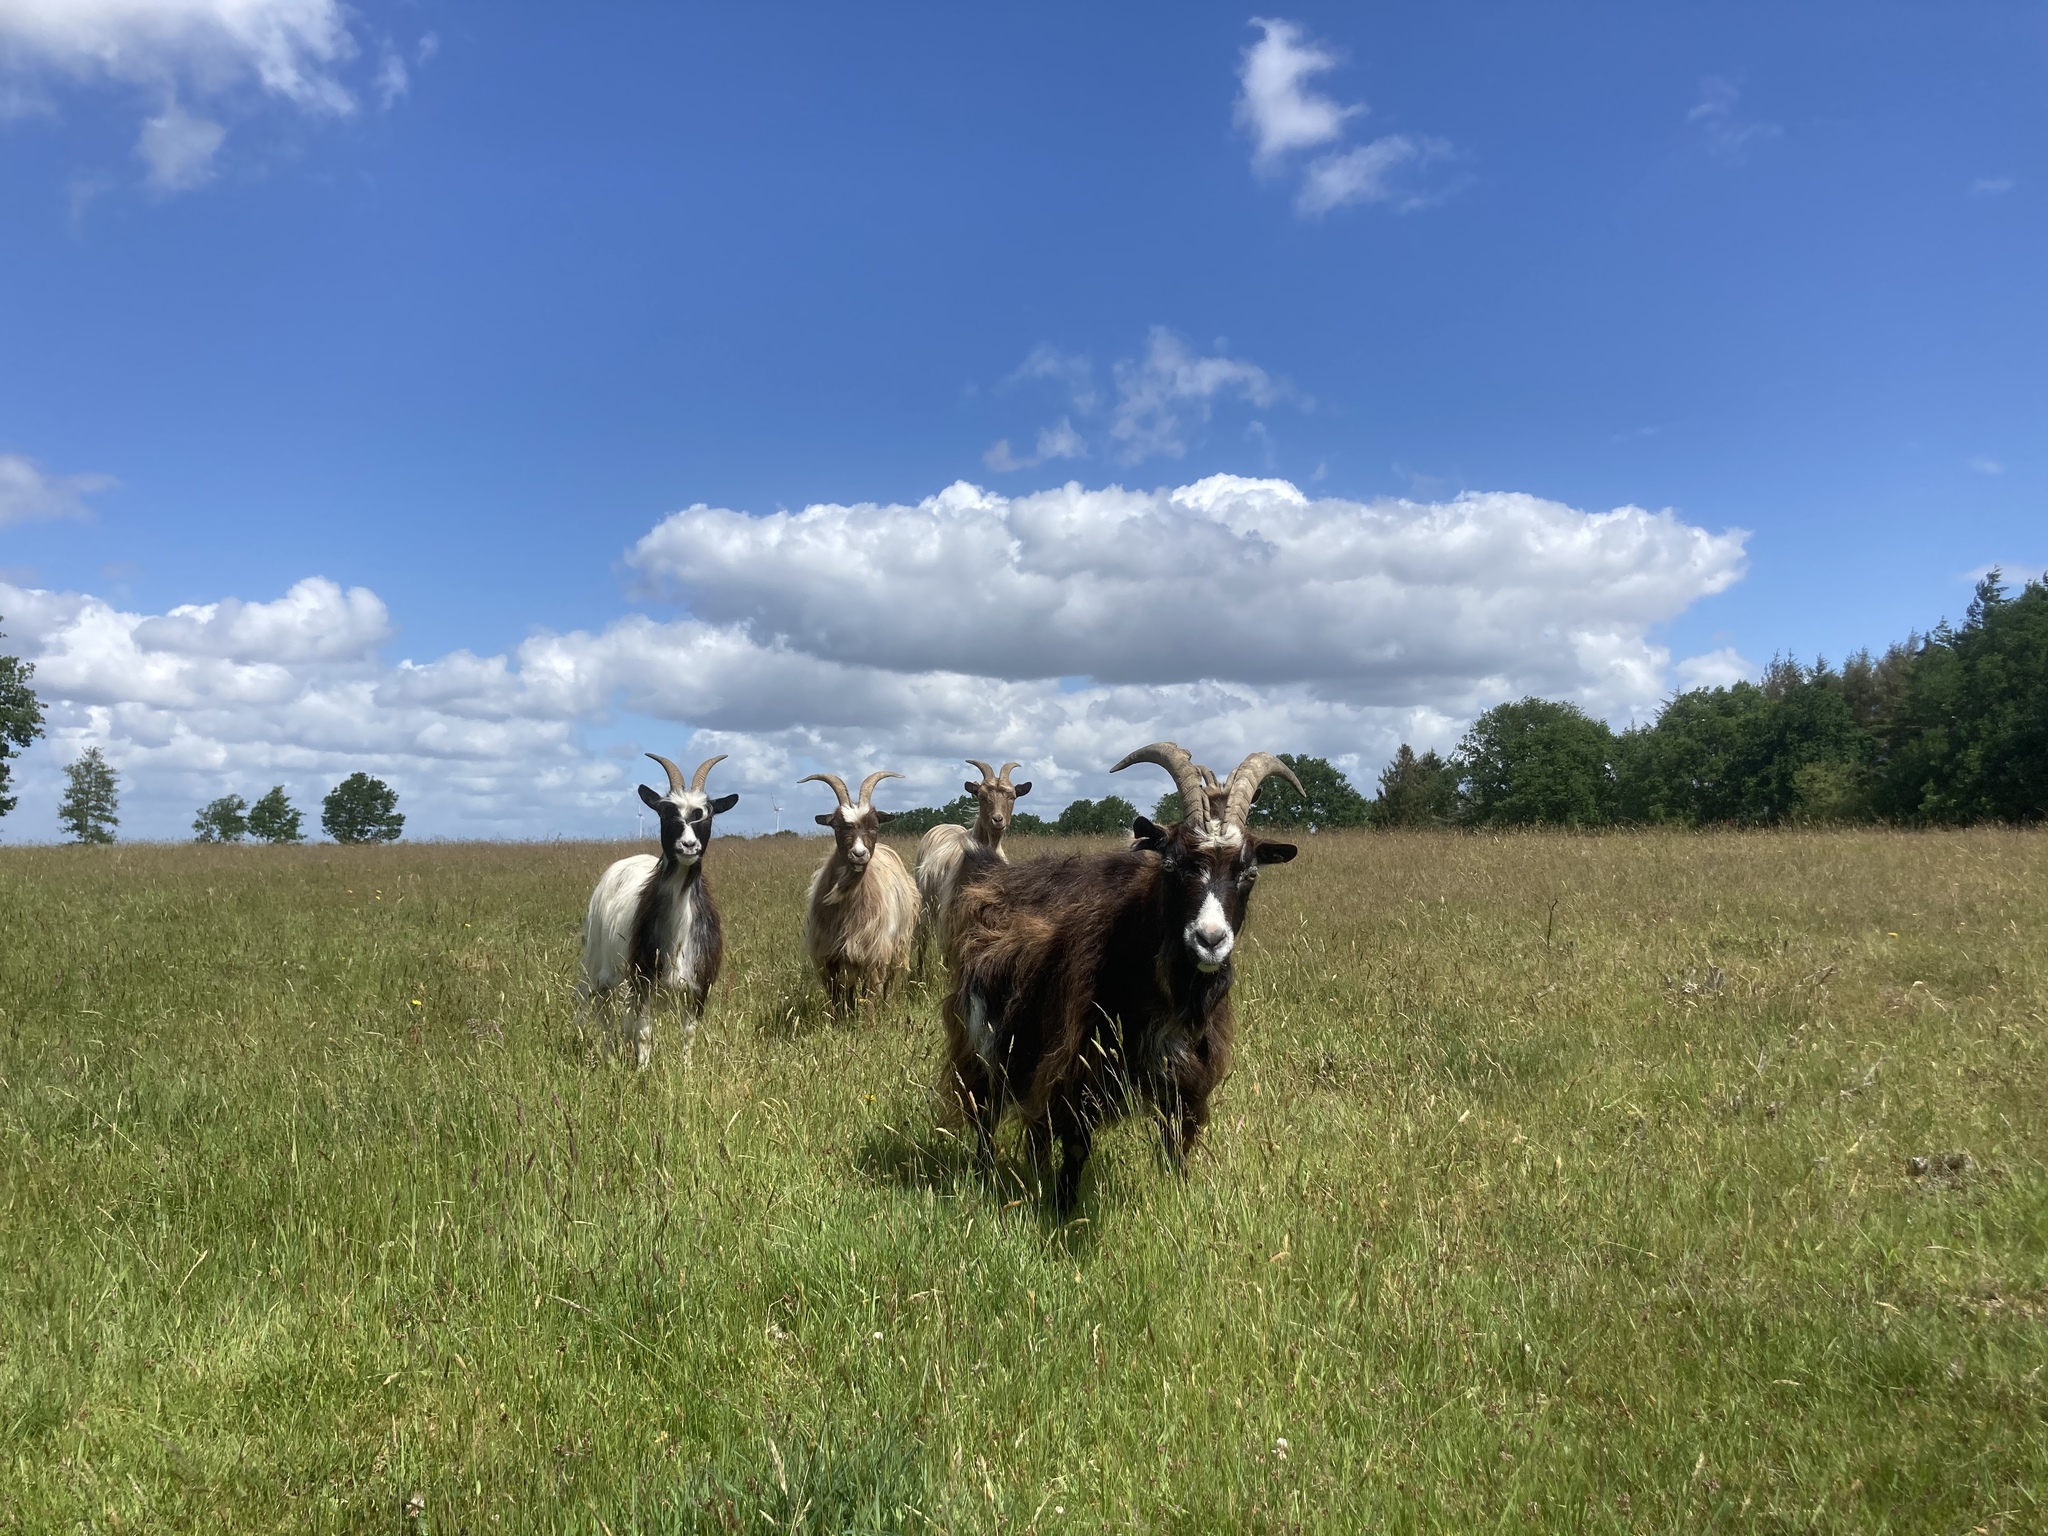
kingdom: Animalia
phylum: Chordata
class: Mammalia
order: Artiodactyla
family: Bovidae
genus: Capra
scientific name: Capra hircus
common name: Domestic goat
